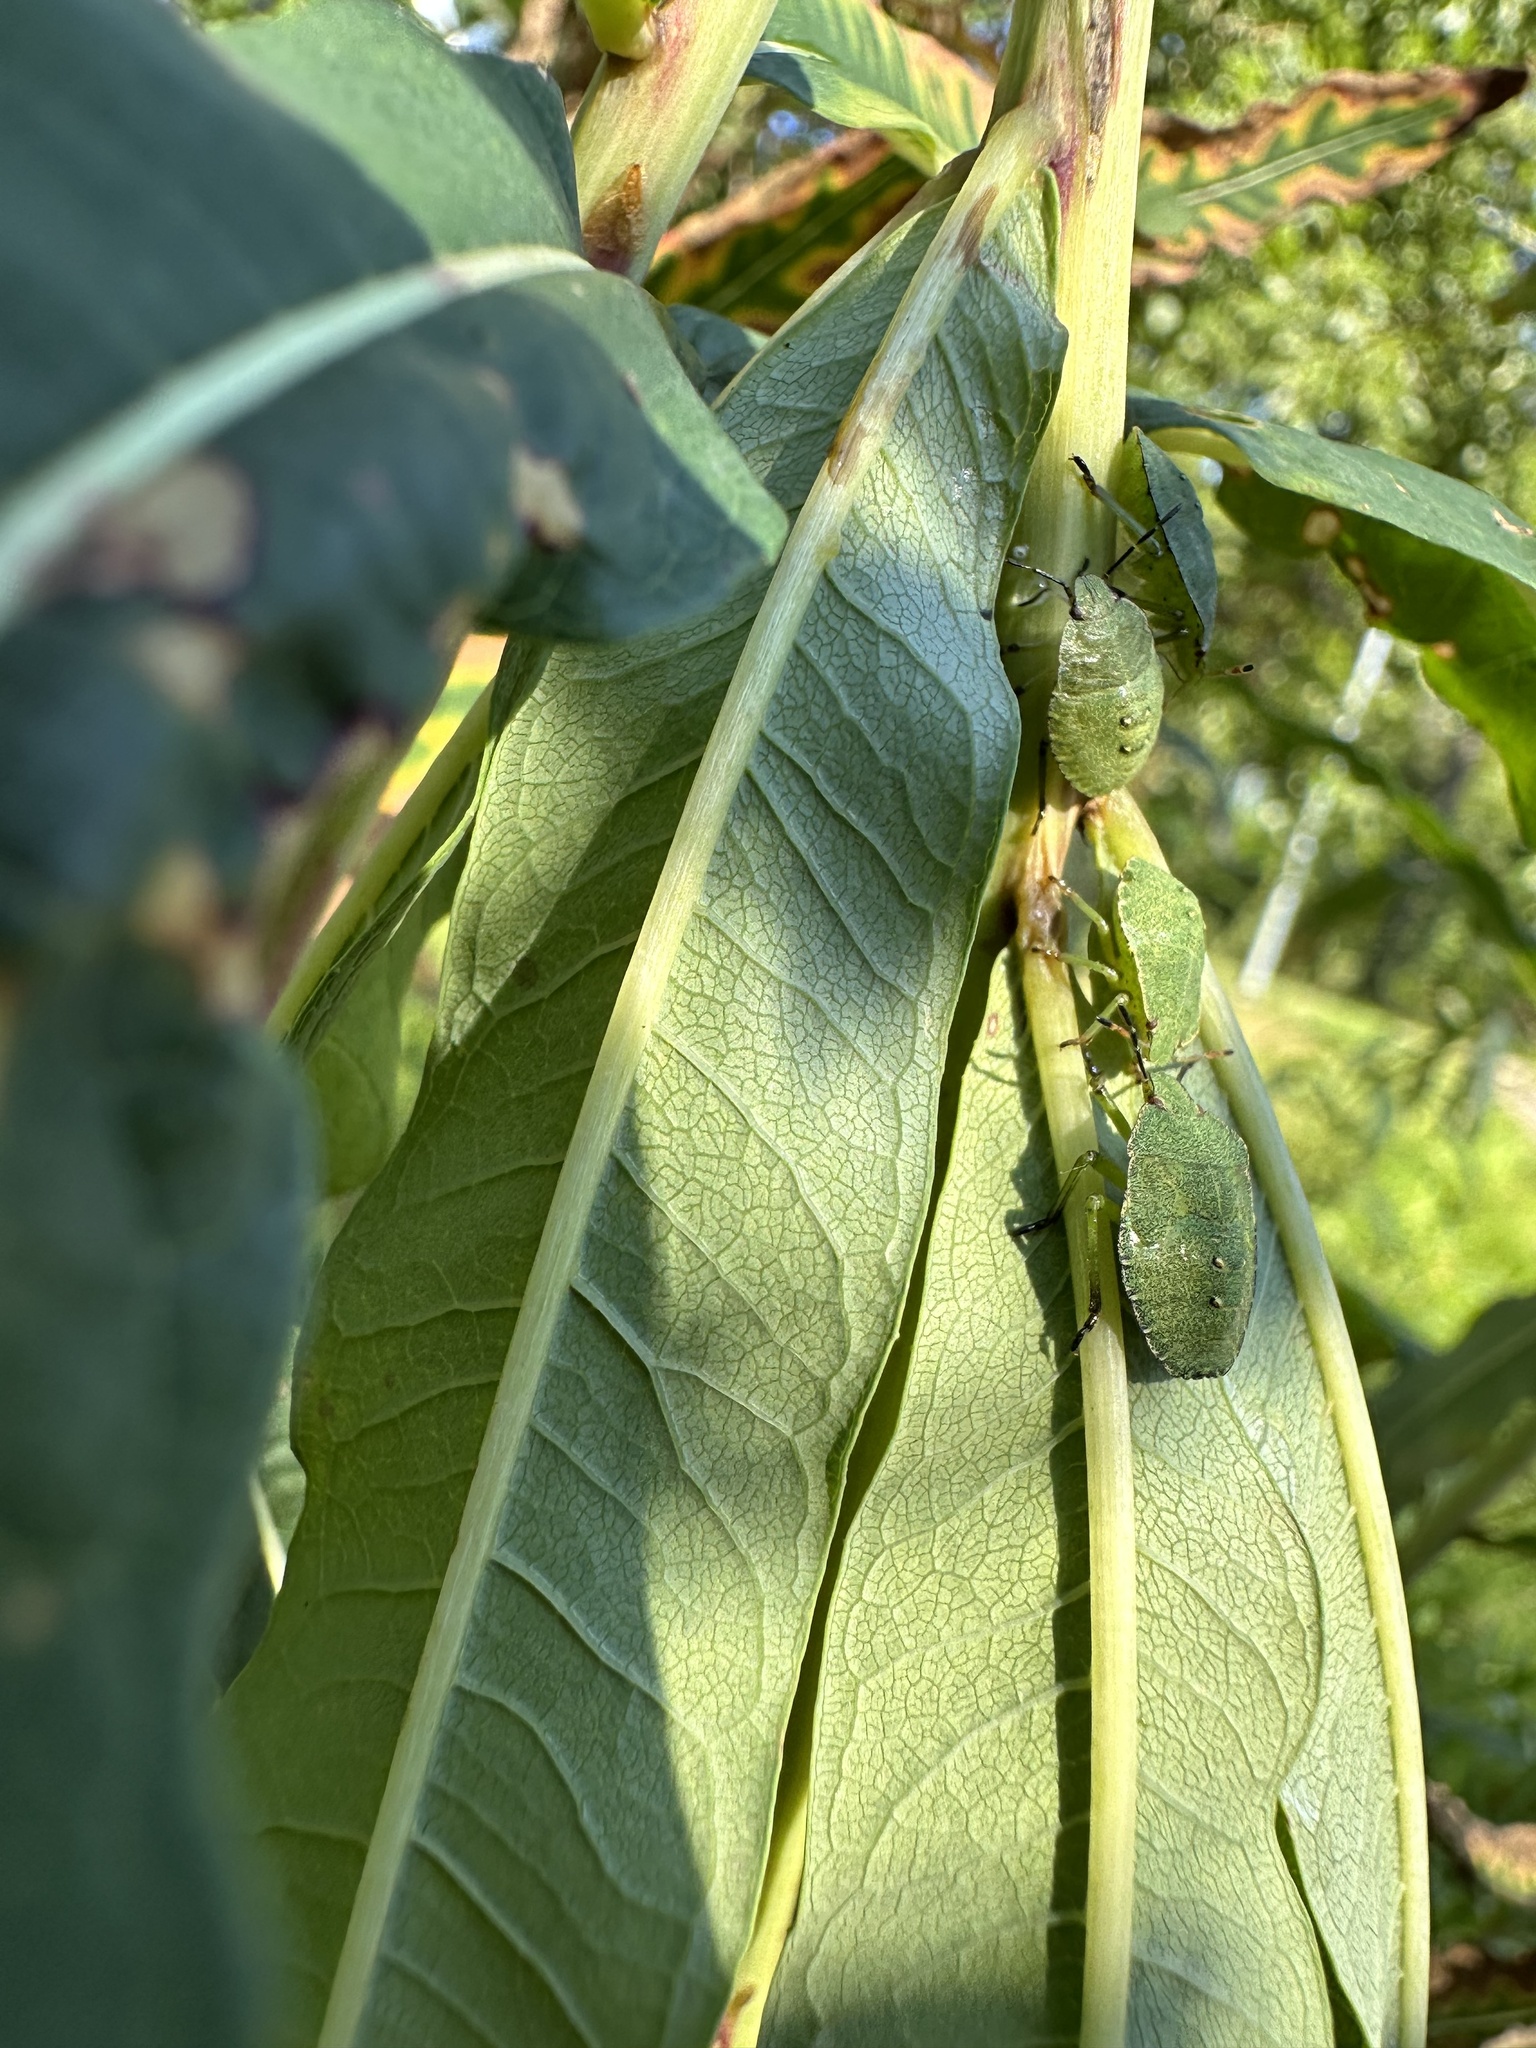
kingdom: Animalia
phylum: Arthropoda
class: Insecta
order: Hemiptera
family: Pentatomidae
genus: Palomena
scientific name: Palomena prasina
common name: Green shieldbug
